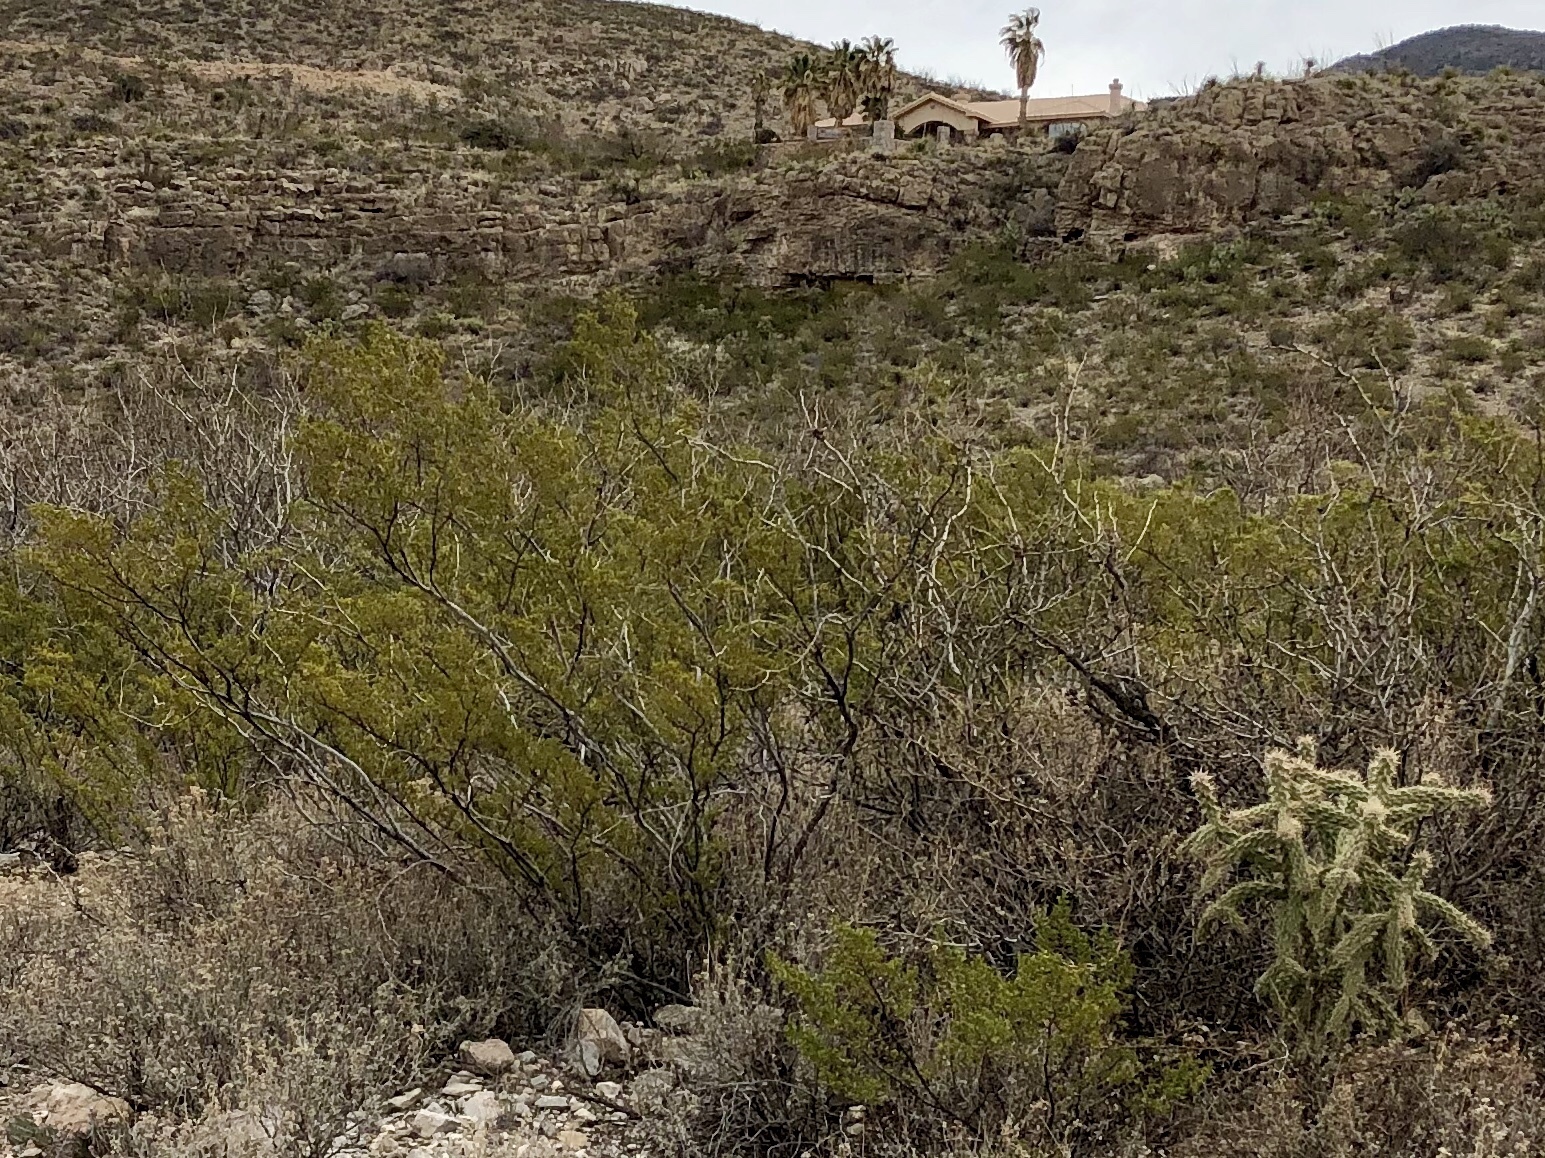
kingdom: Plantae
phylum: Tracheophyta
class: Magnoliopsida
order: Zygophyllales
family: Zygophyllaceae
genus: Larrea
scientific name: Larrea tridentata
